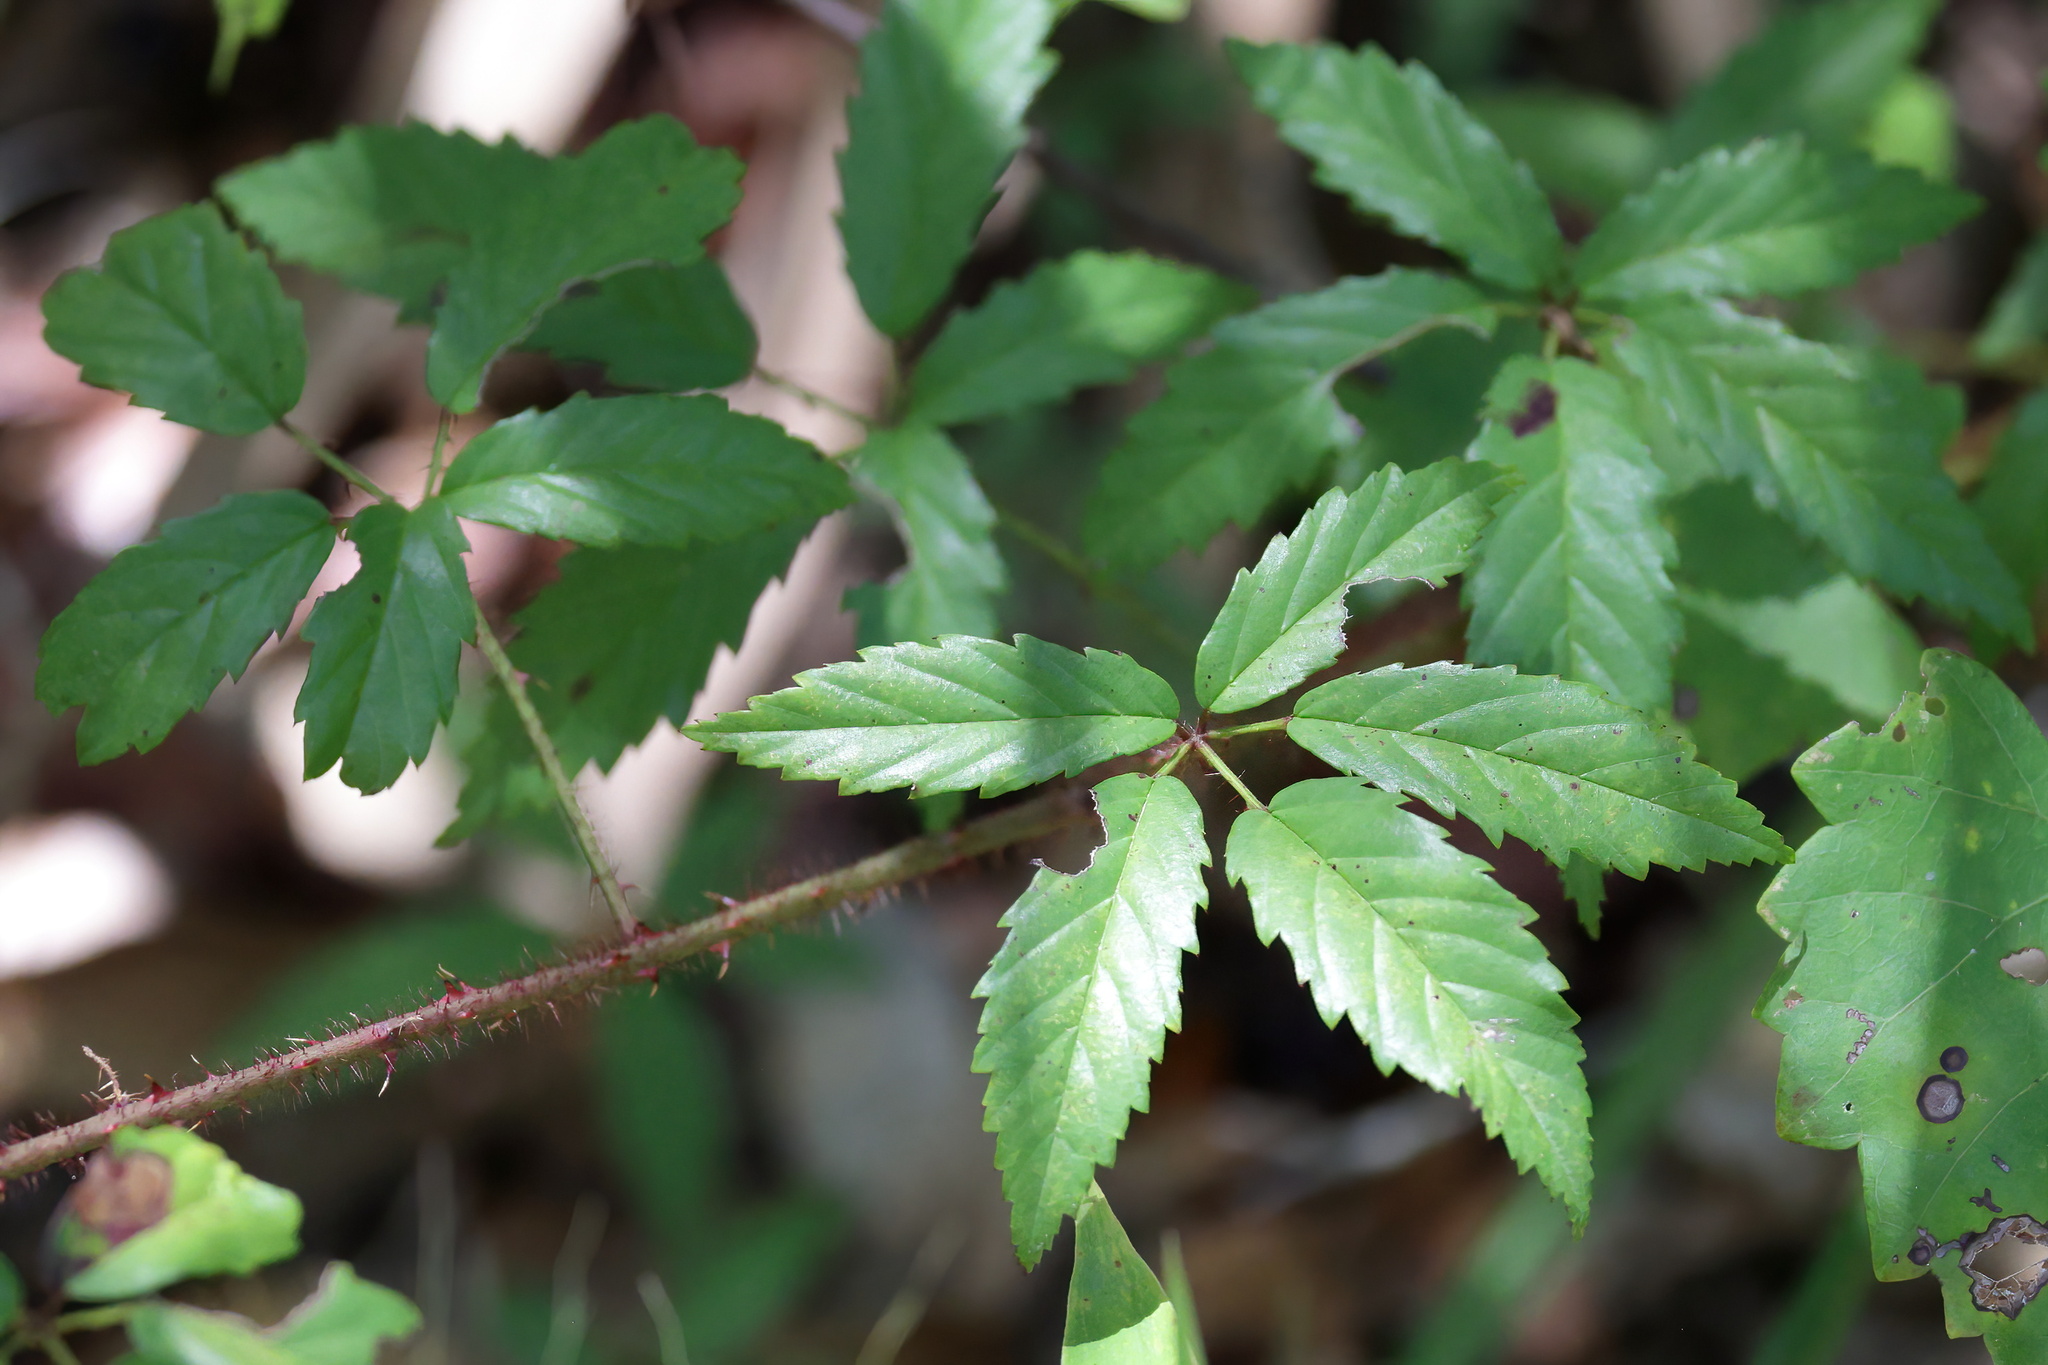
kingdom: Plantae
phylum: Tracheophyta
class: Magnoliopsida
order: Rosales
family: Rosaceae
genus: Rubus
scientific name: Rubus trivialis
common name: Southern dewberry
